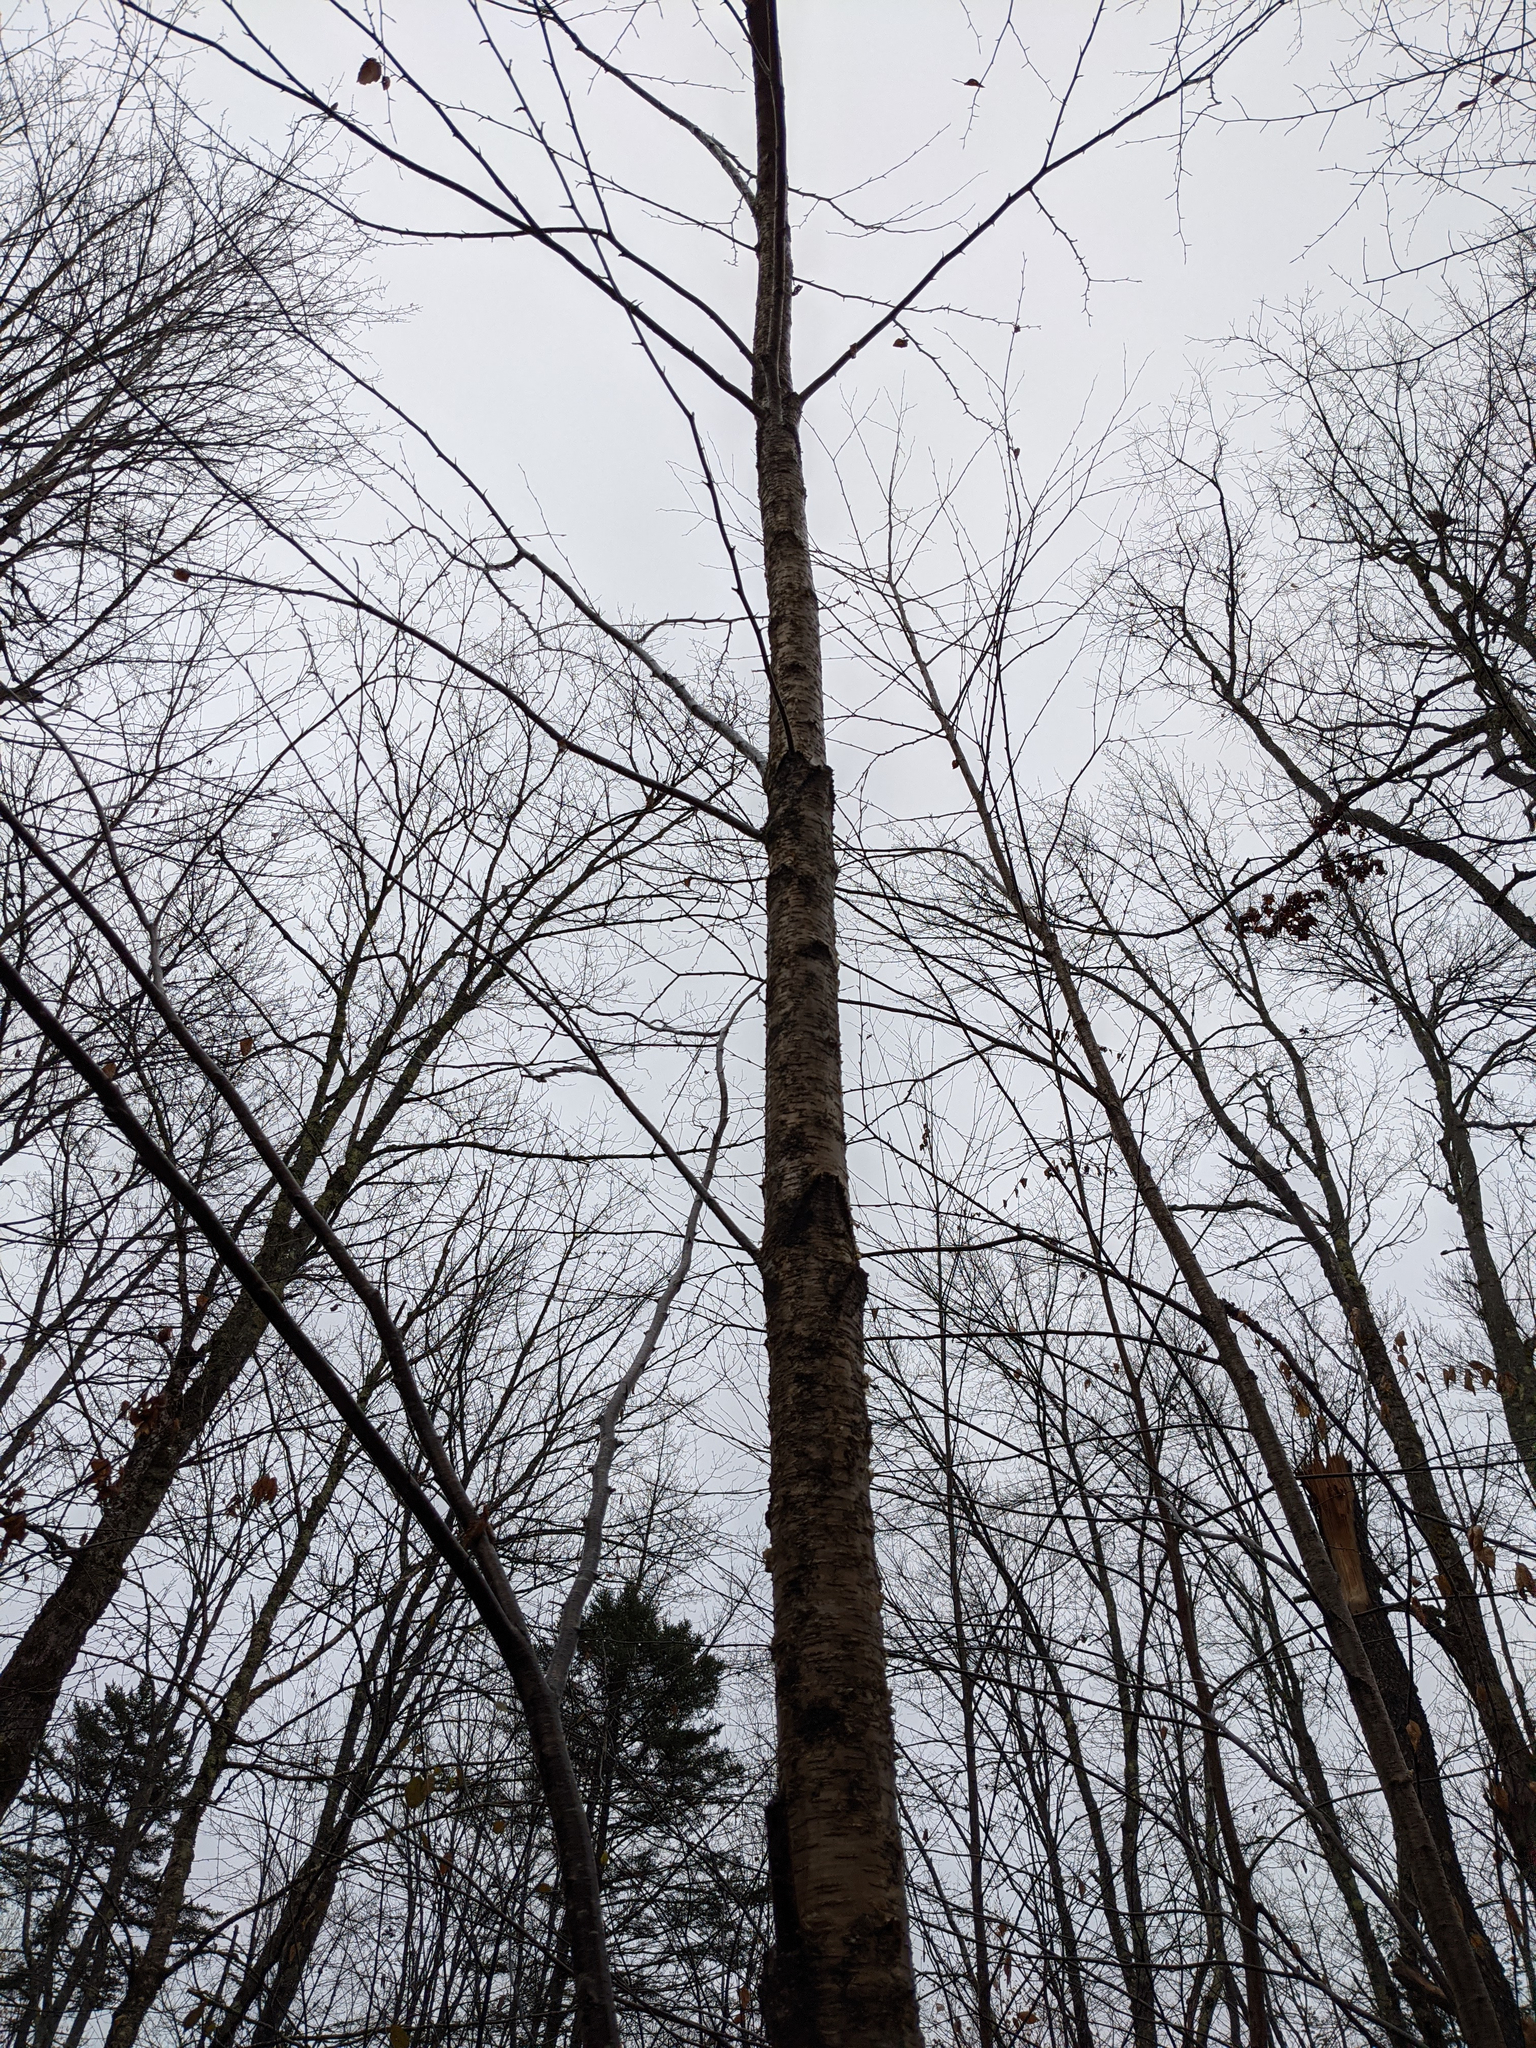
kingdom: Plantae
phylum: Tracheophyta
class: Magnoliopsida
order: Fagales
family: Betulaceae
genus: Betula
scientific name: Betula alleghaniensis
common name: Yellow birch
